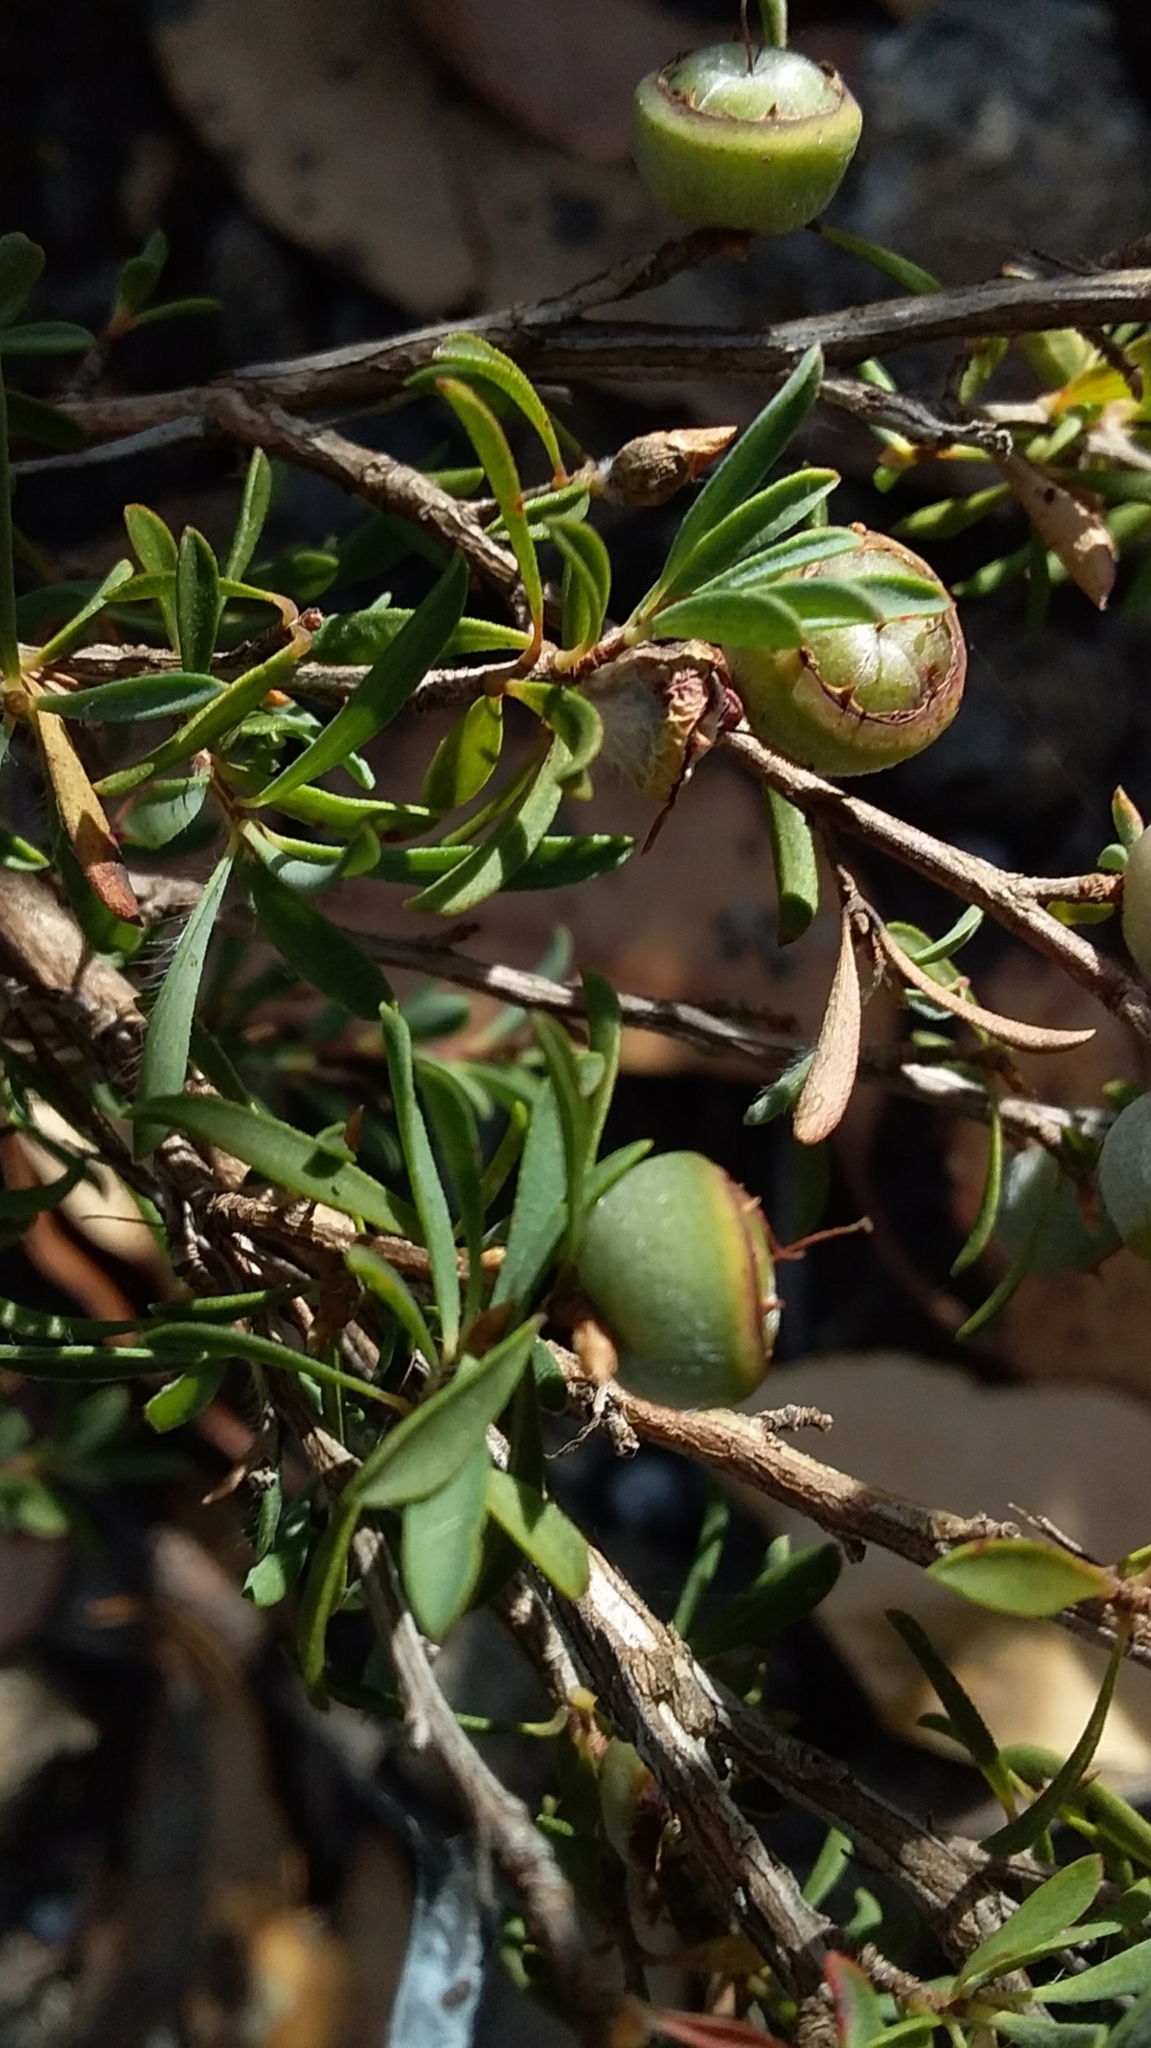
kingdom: Plantae
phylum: Tracheophyta
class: Magnoliopsida
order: Myrtales
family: Myrtaceae
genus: Leptospermum
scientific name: Leptospermum myrsinoides
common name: Heath teatree
